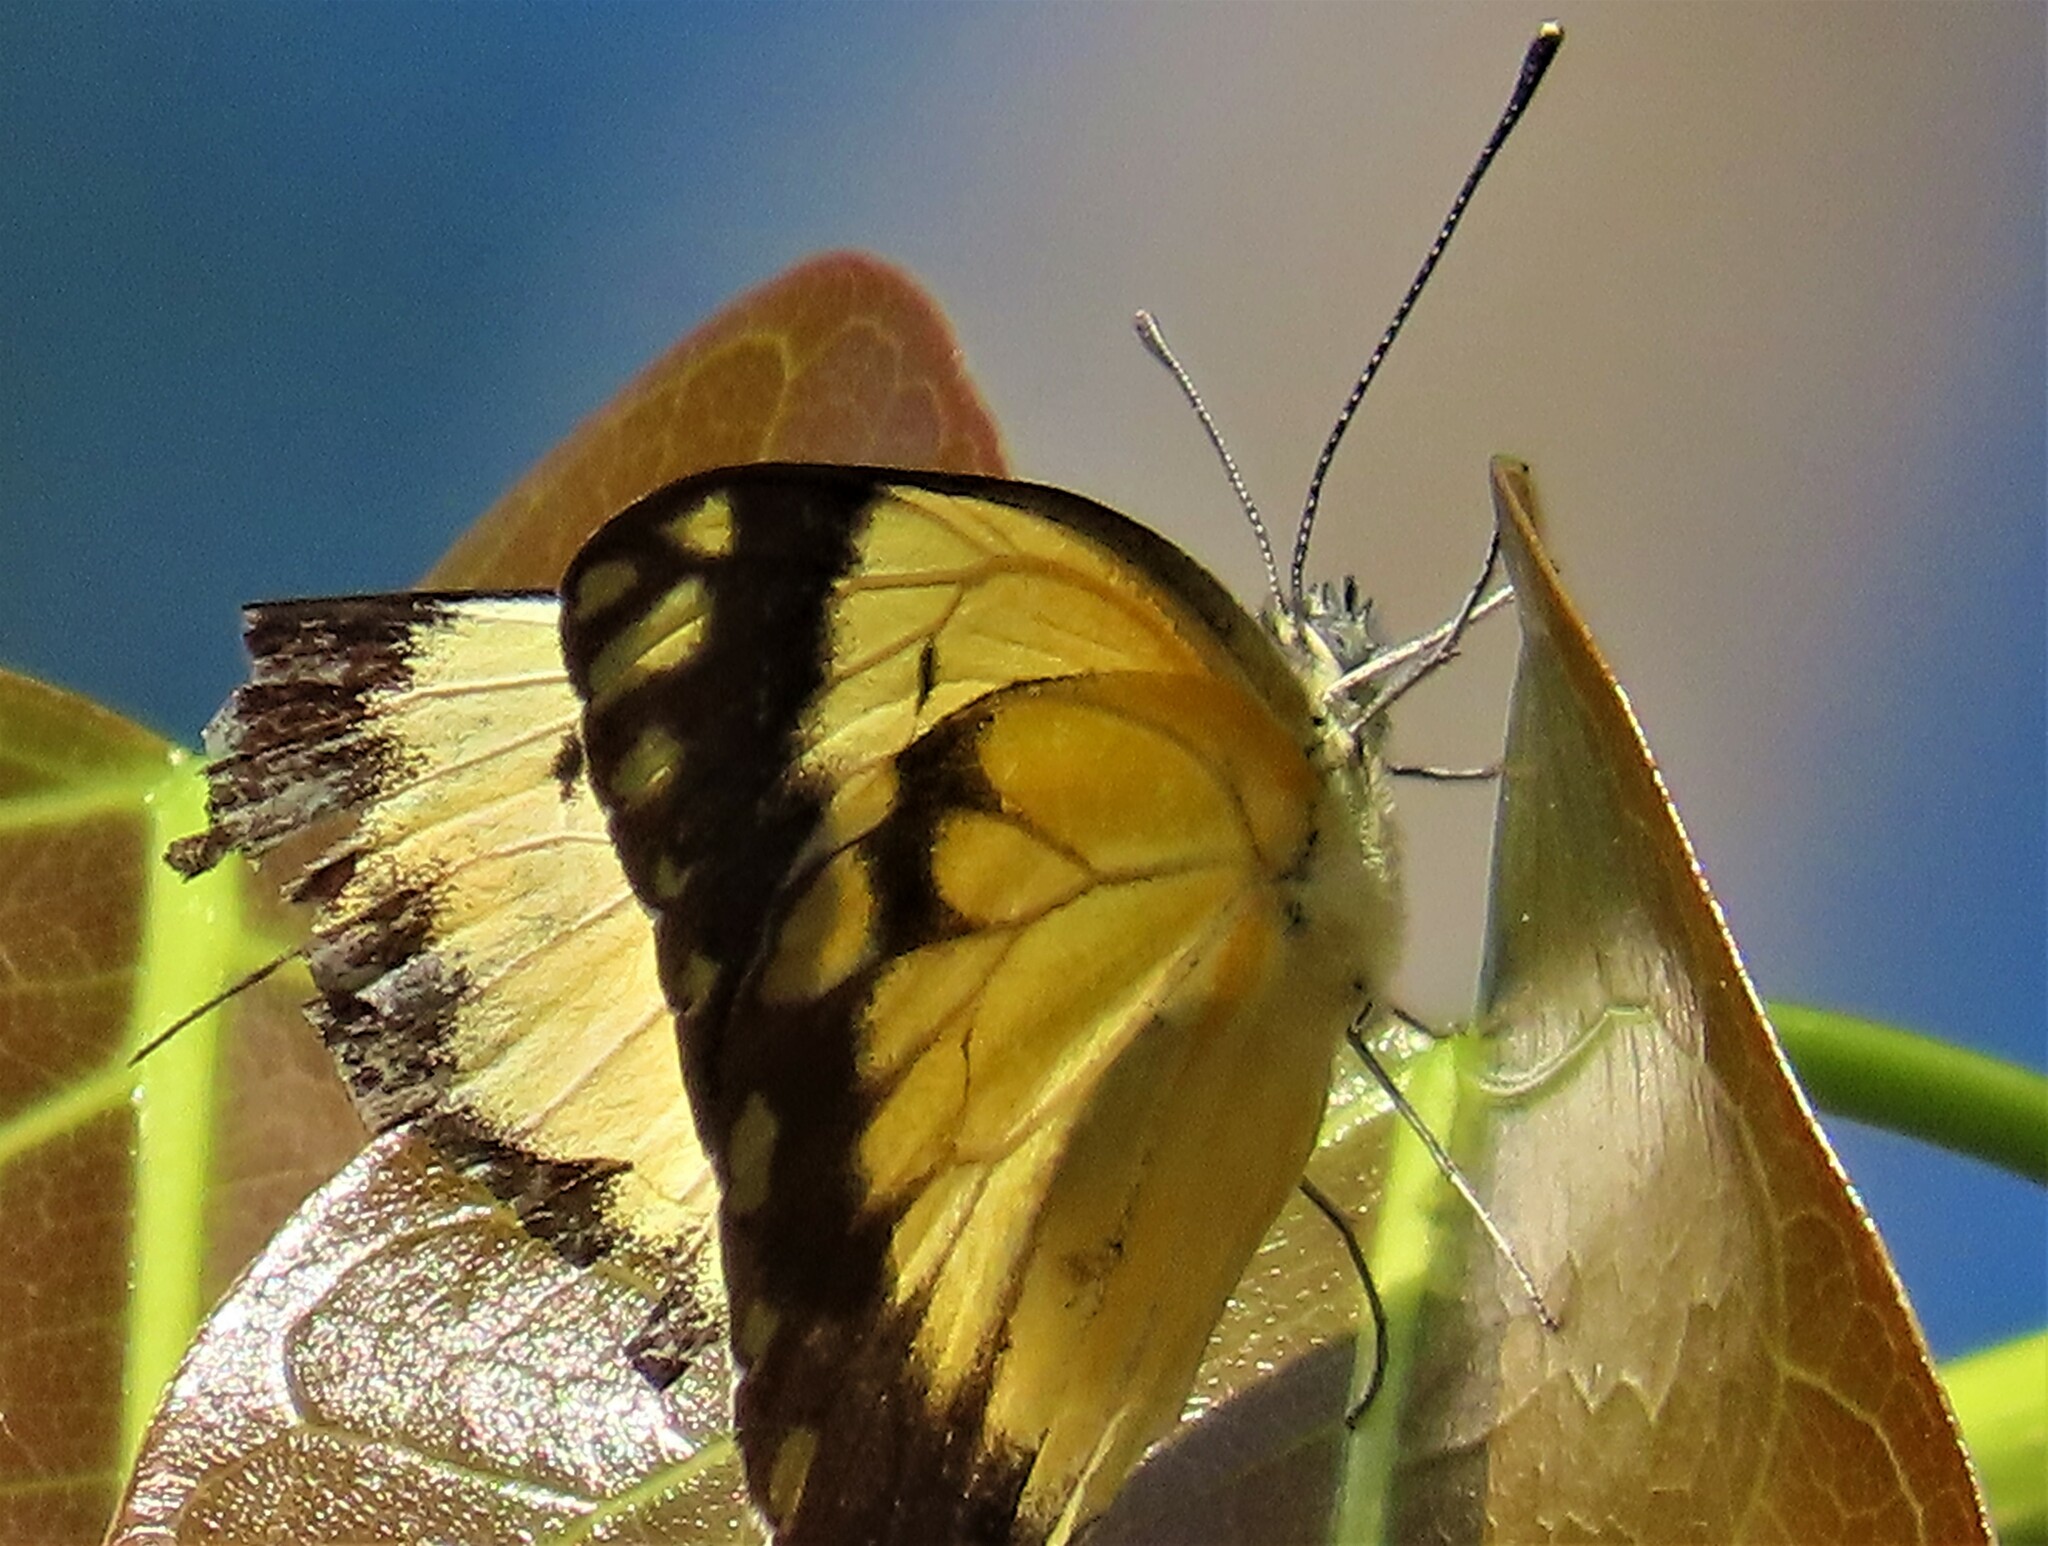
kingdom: Animalia
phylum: Arthropoda
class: Insecta
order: Lepidoptera
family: Pieridae
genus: Belenois
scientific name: Belenois creona
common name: African caper white
